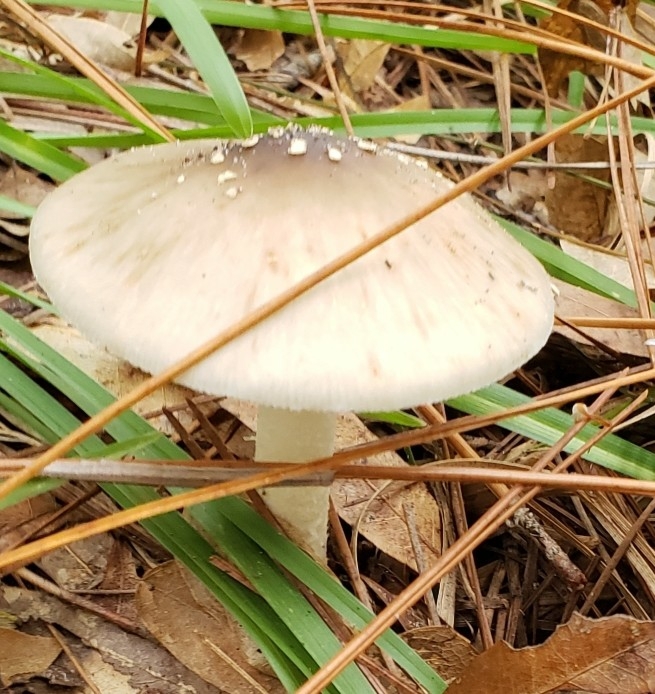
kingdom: Fungi
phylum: Basidiomycota
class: Agaricomycetes
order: Agaricales
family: Amanitaceae
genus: Amanita
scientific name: Amanita brunnescens
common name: Brown american star-footed amanita
